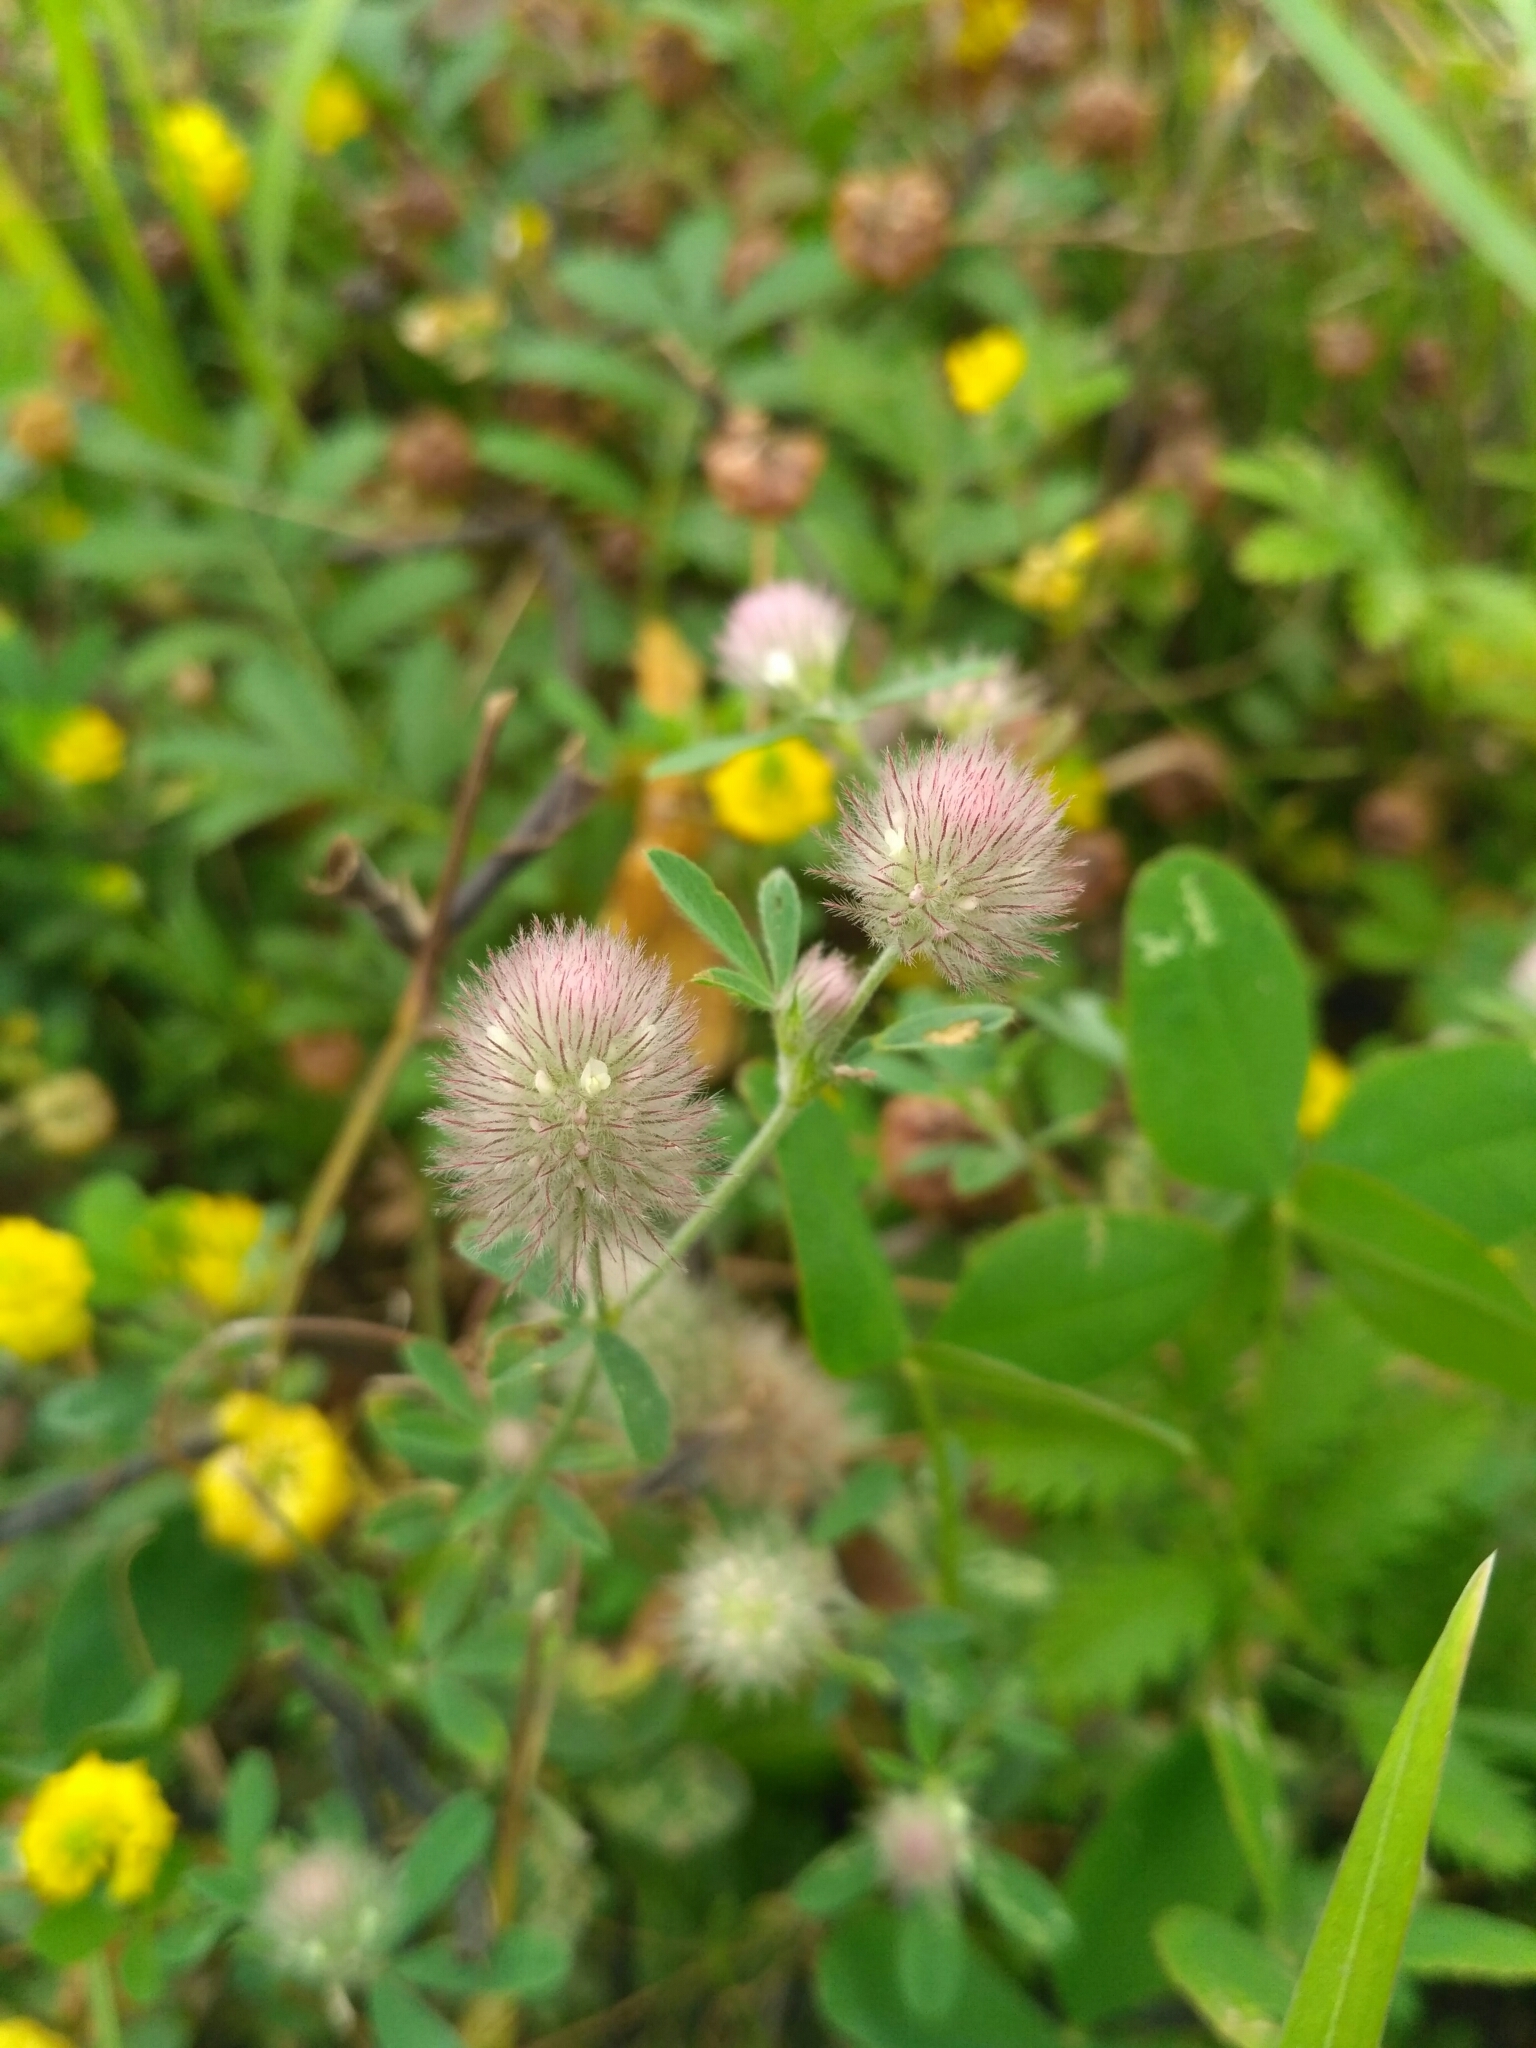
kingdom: Plantae
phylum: Tracheophyta
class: Magnoliopsida
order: Fabales
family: Fabaceae
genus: Trifolium
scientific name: Trifolium arvense
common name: Hare's-foot clover
